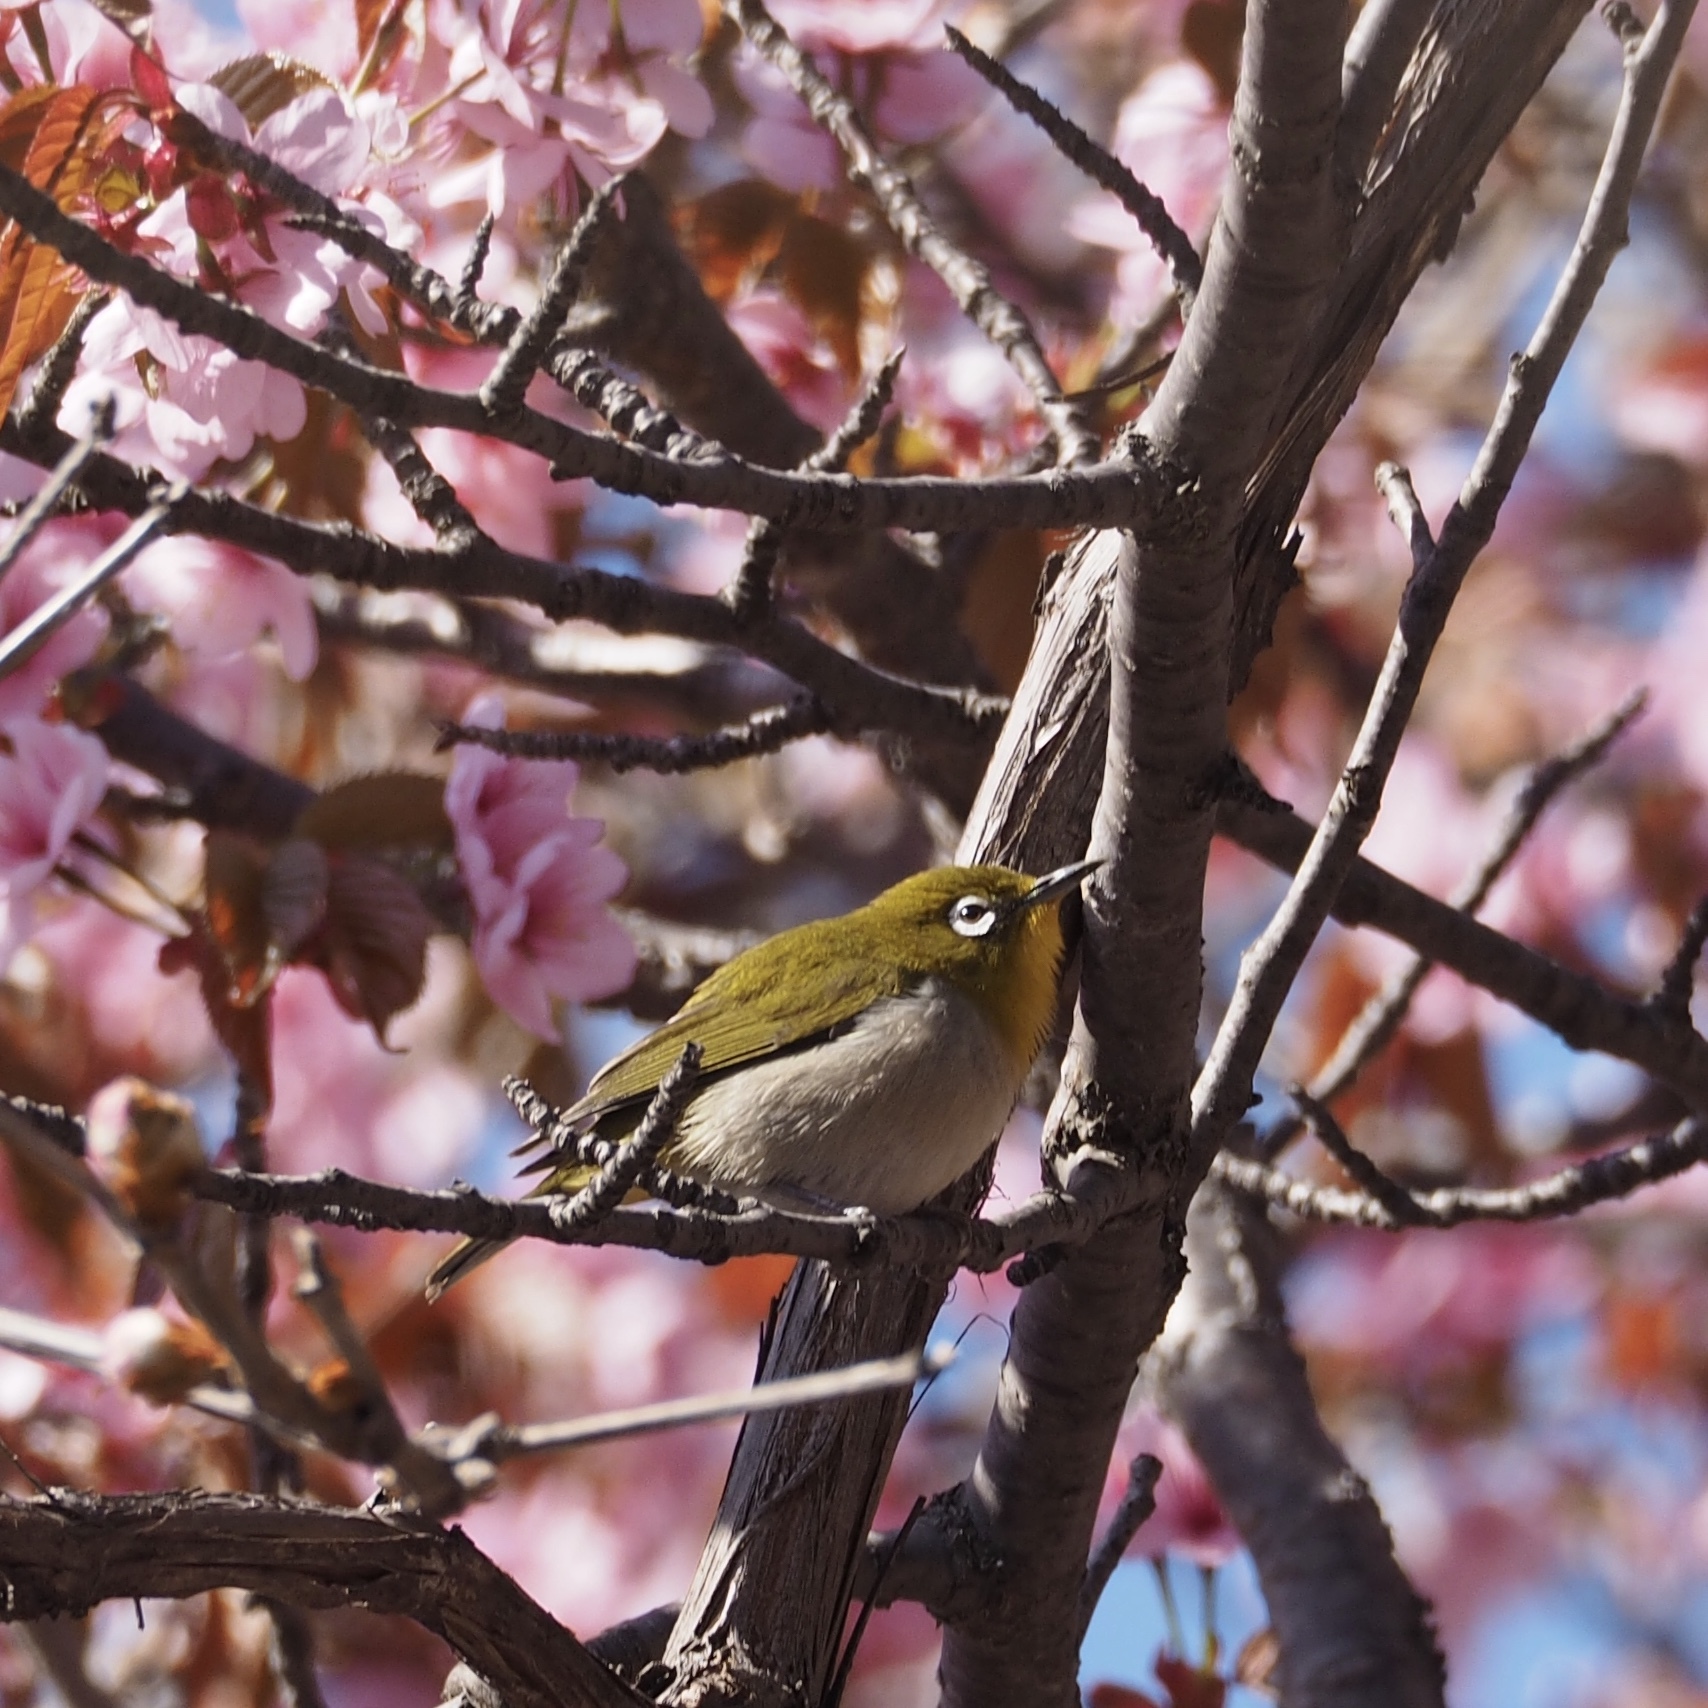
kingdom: Animalia
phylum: Chordata
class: Aves
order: Passeriformes
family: Zosteropidae
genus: Zosterops
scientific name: Zosterops japonicus
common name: Japanese white-eye
